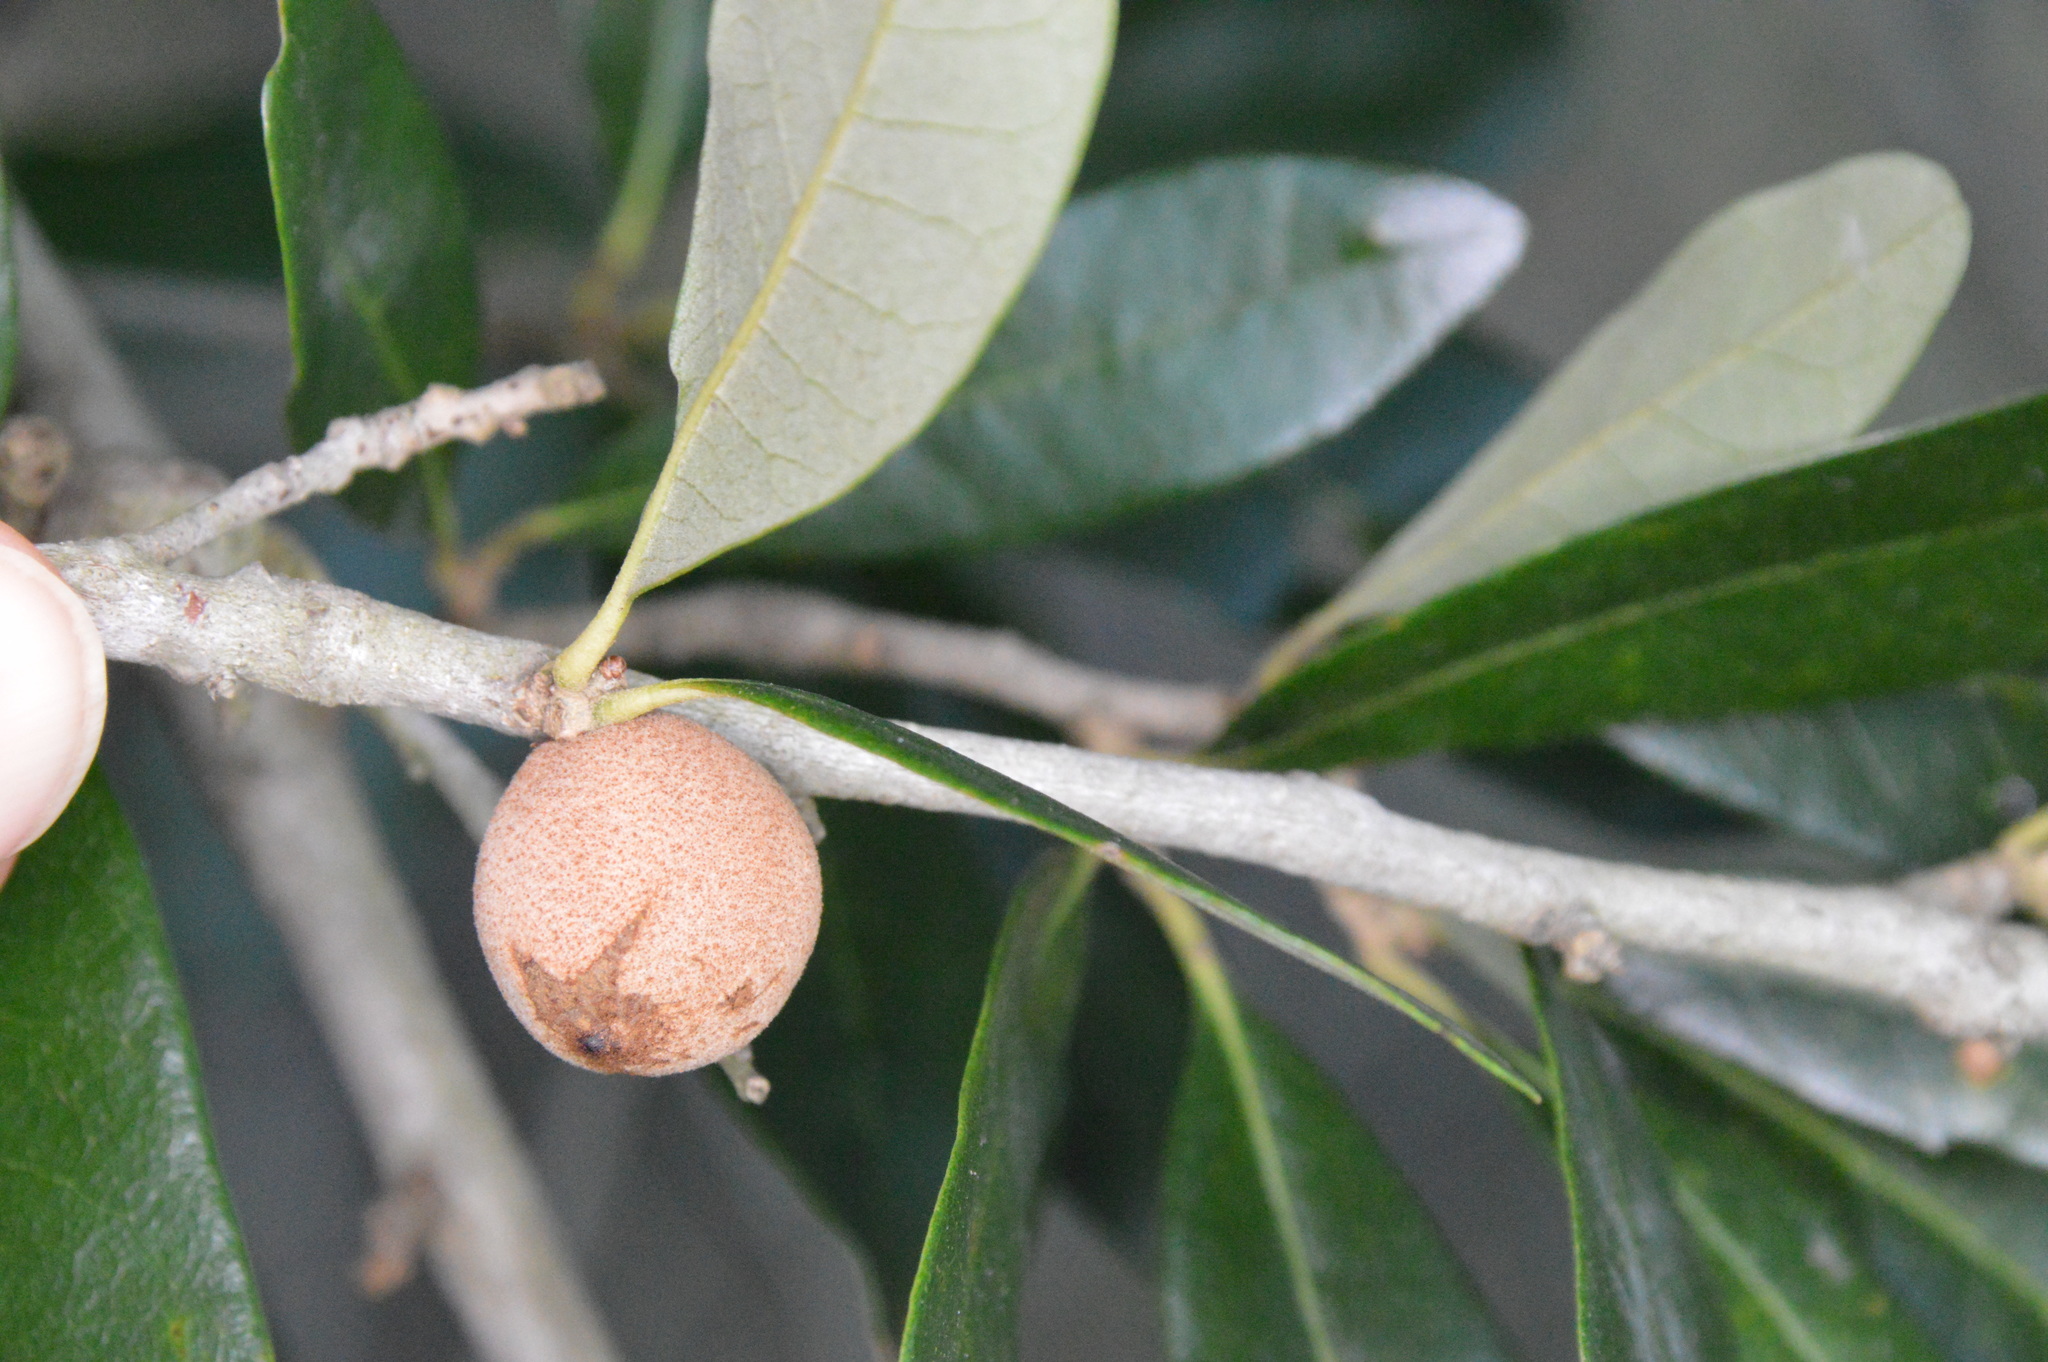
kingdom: Animalia
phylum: Arthropoda
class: Insecta
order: Hymenoptera
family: Cynipidae
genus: Disholcaspis
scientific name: Disholcaspis
